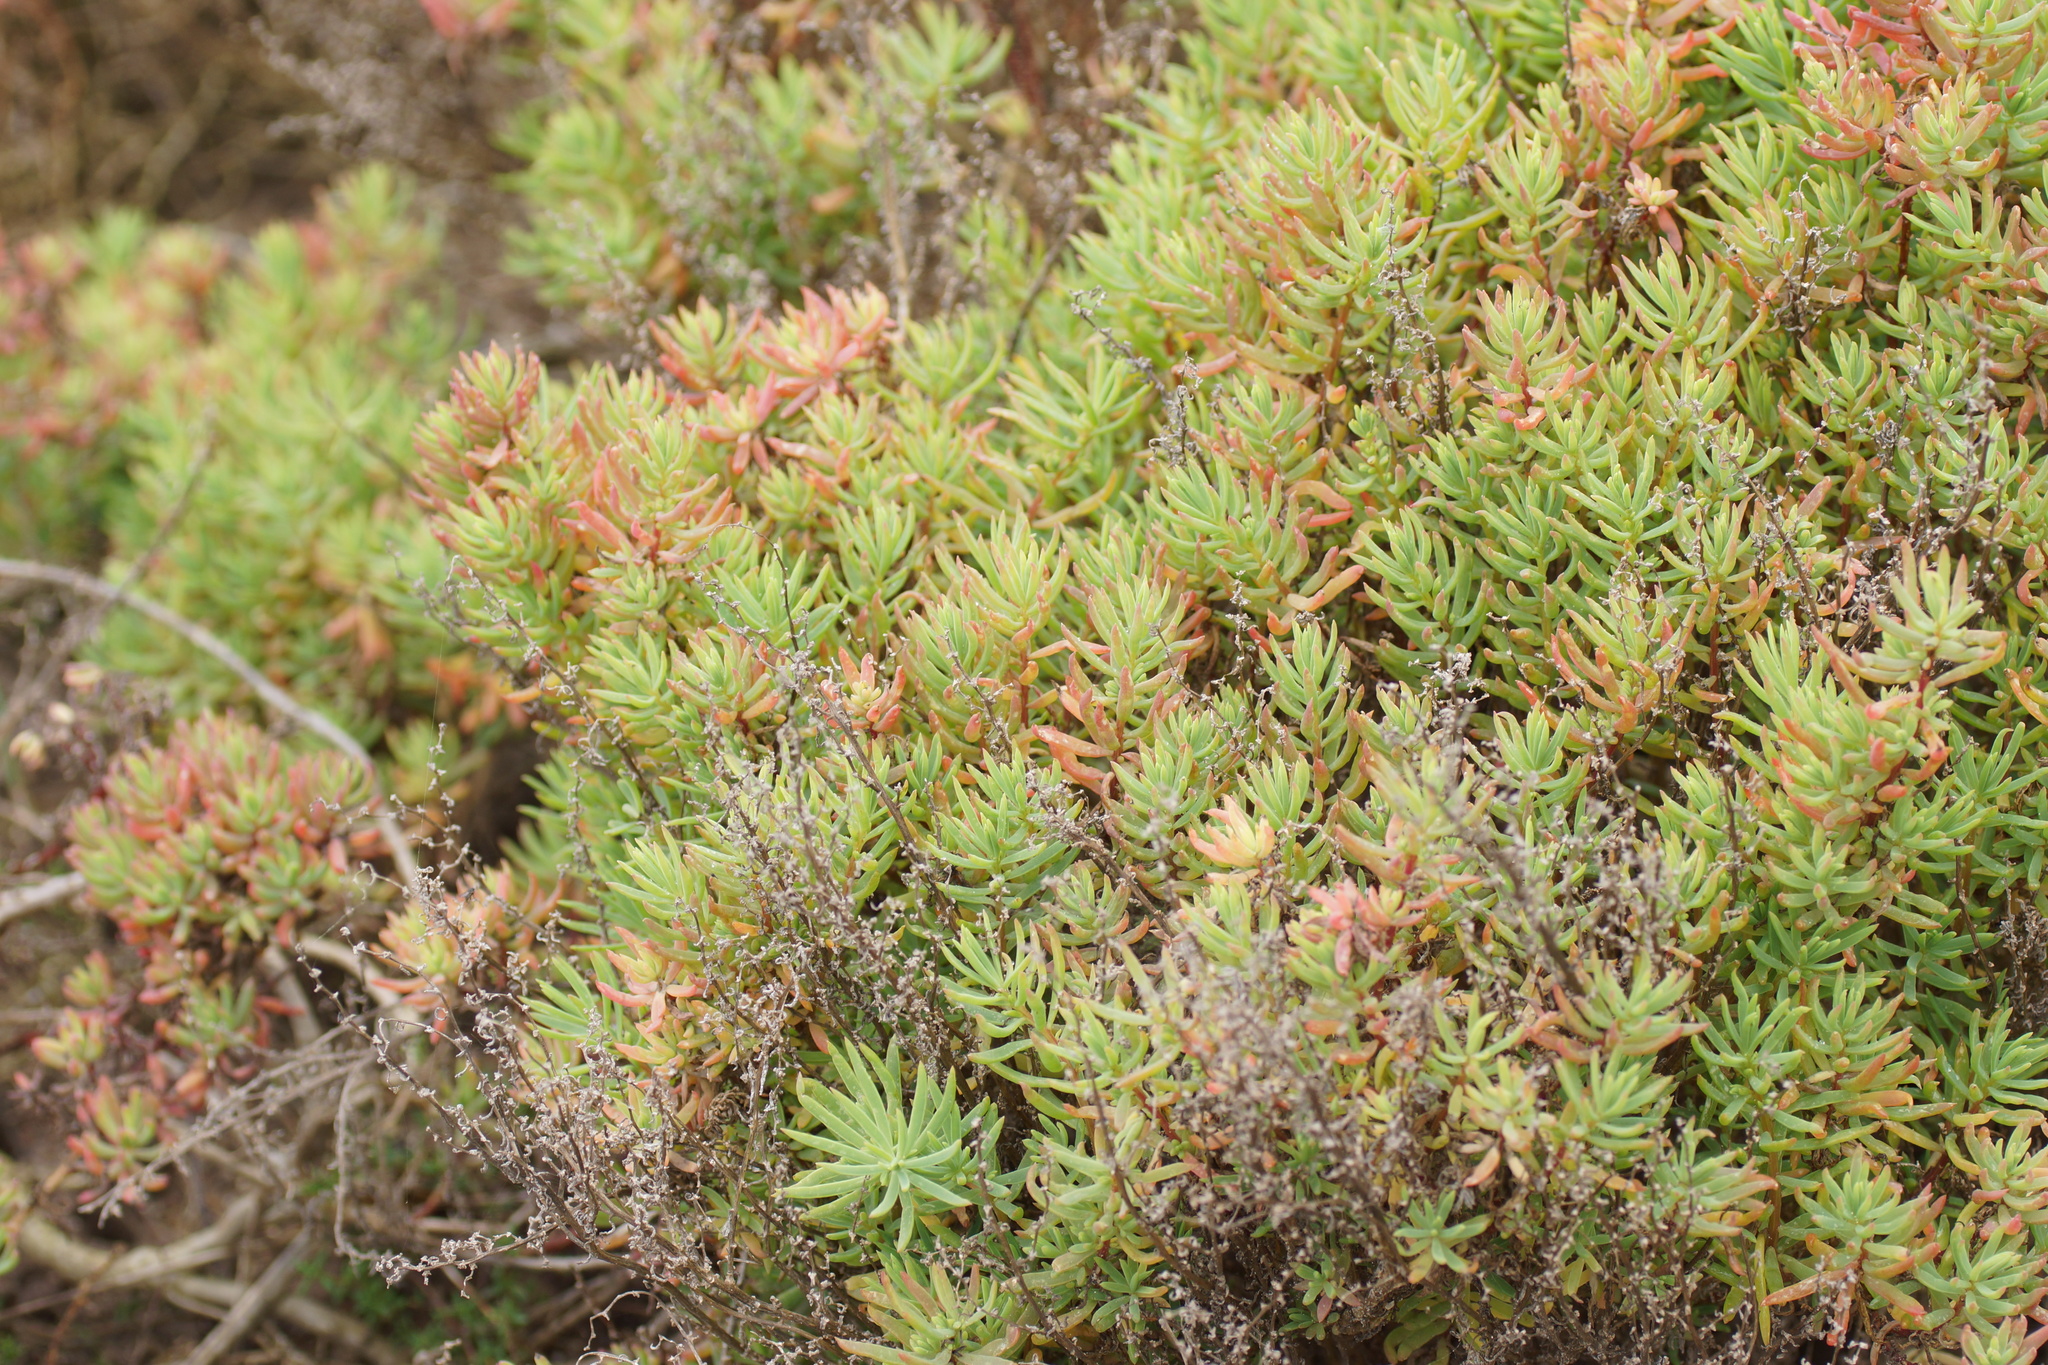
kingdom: Plantae
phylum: Tracheophyta
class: Magnoliopsida
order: Caryophyllales
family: Amaranthaceae
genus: Suaeda
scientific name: Suaeda australis
